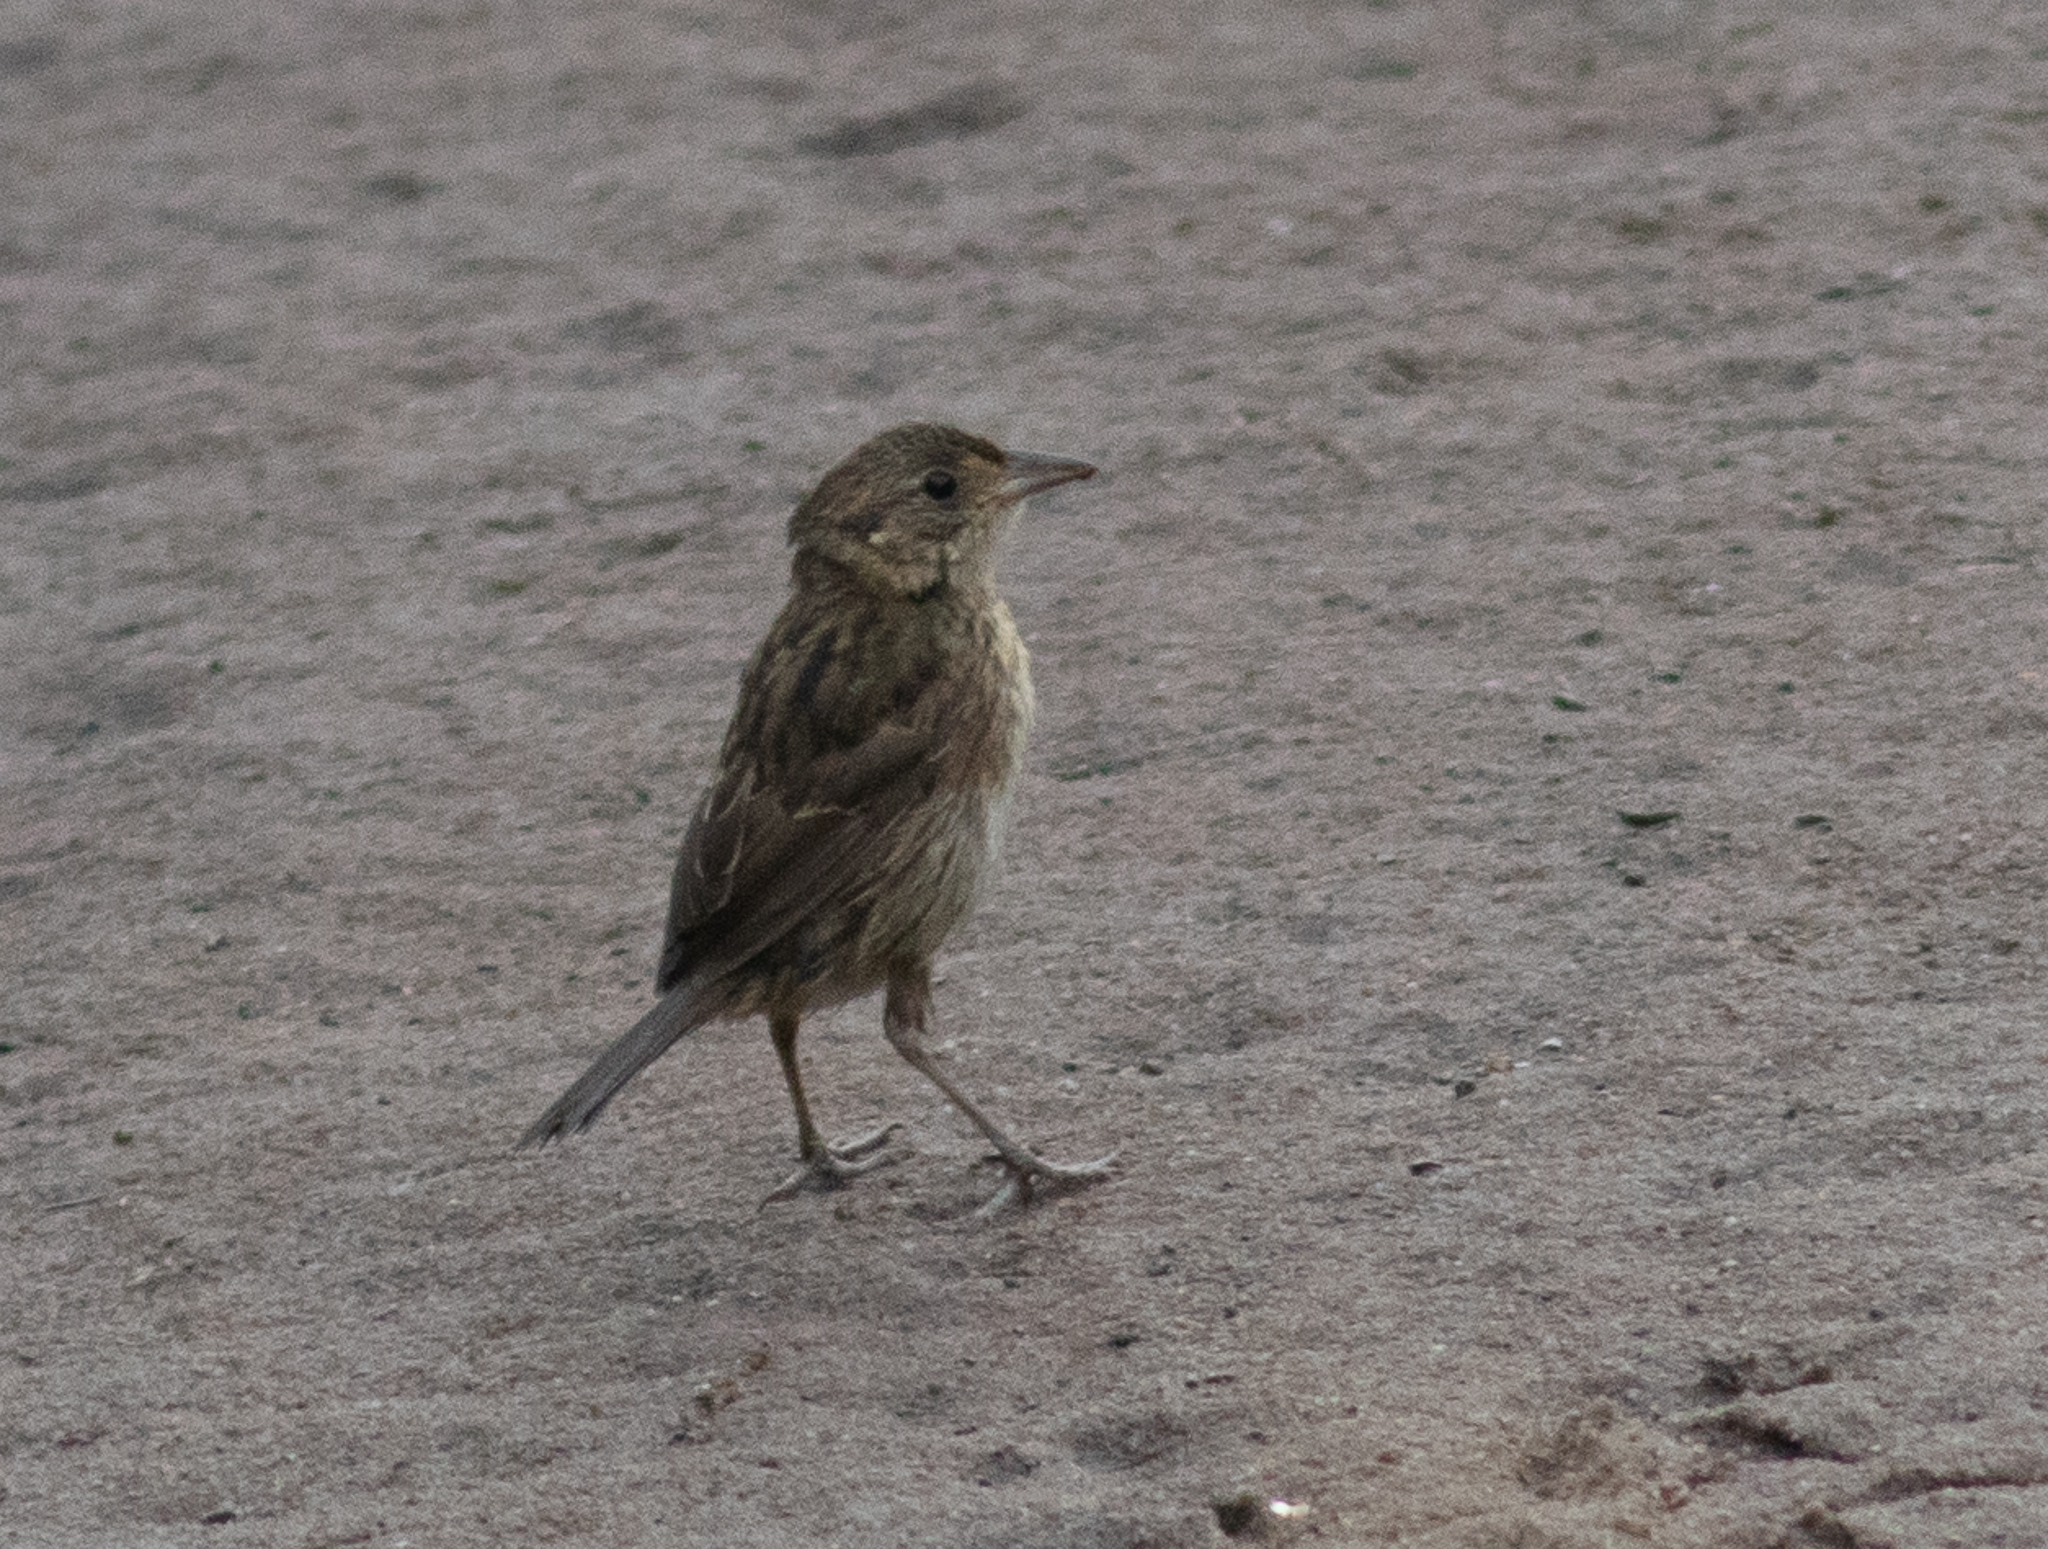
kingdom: Animalia
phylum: Chordata
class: Aves
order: Passeriformes
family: Passerellidae
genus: Ammospiza
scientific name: Ammospiza maritima
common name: Seaside sparrow
